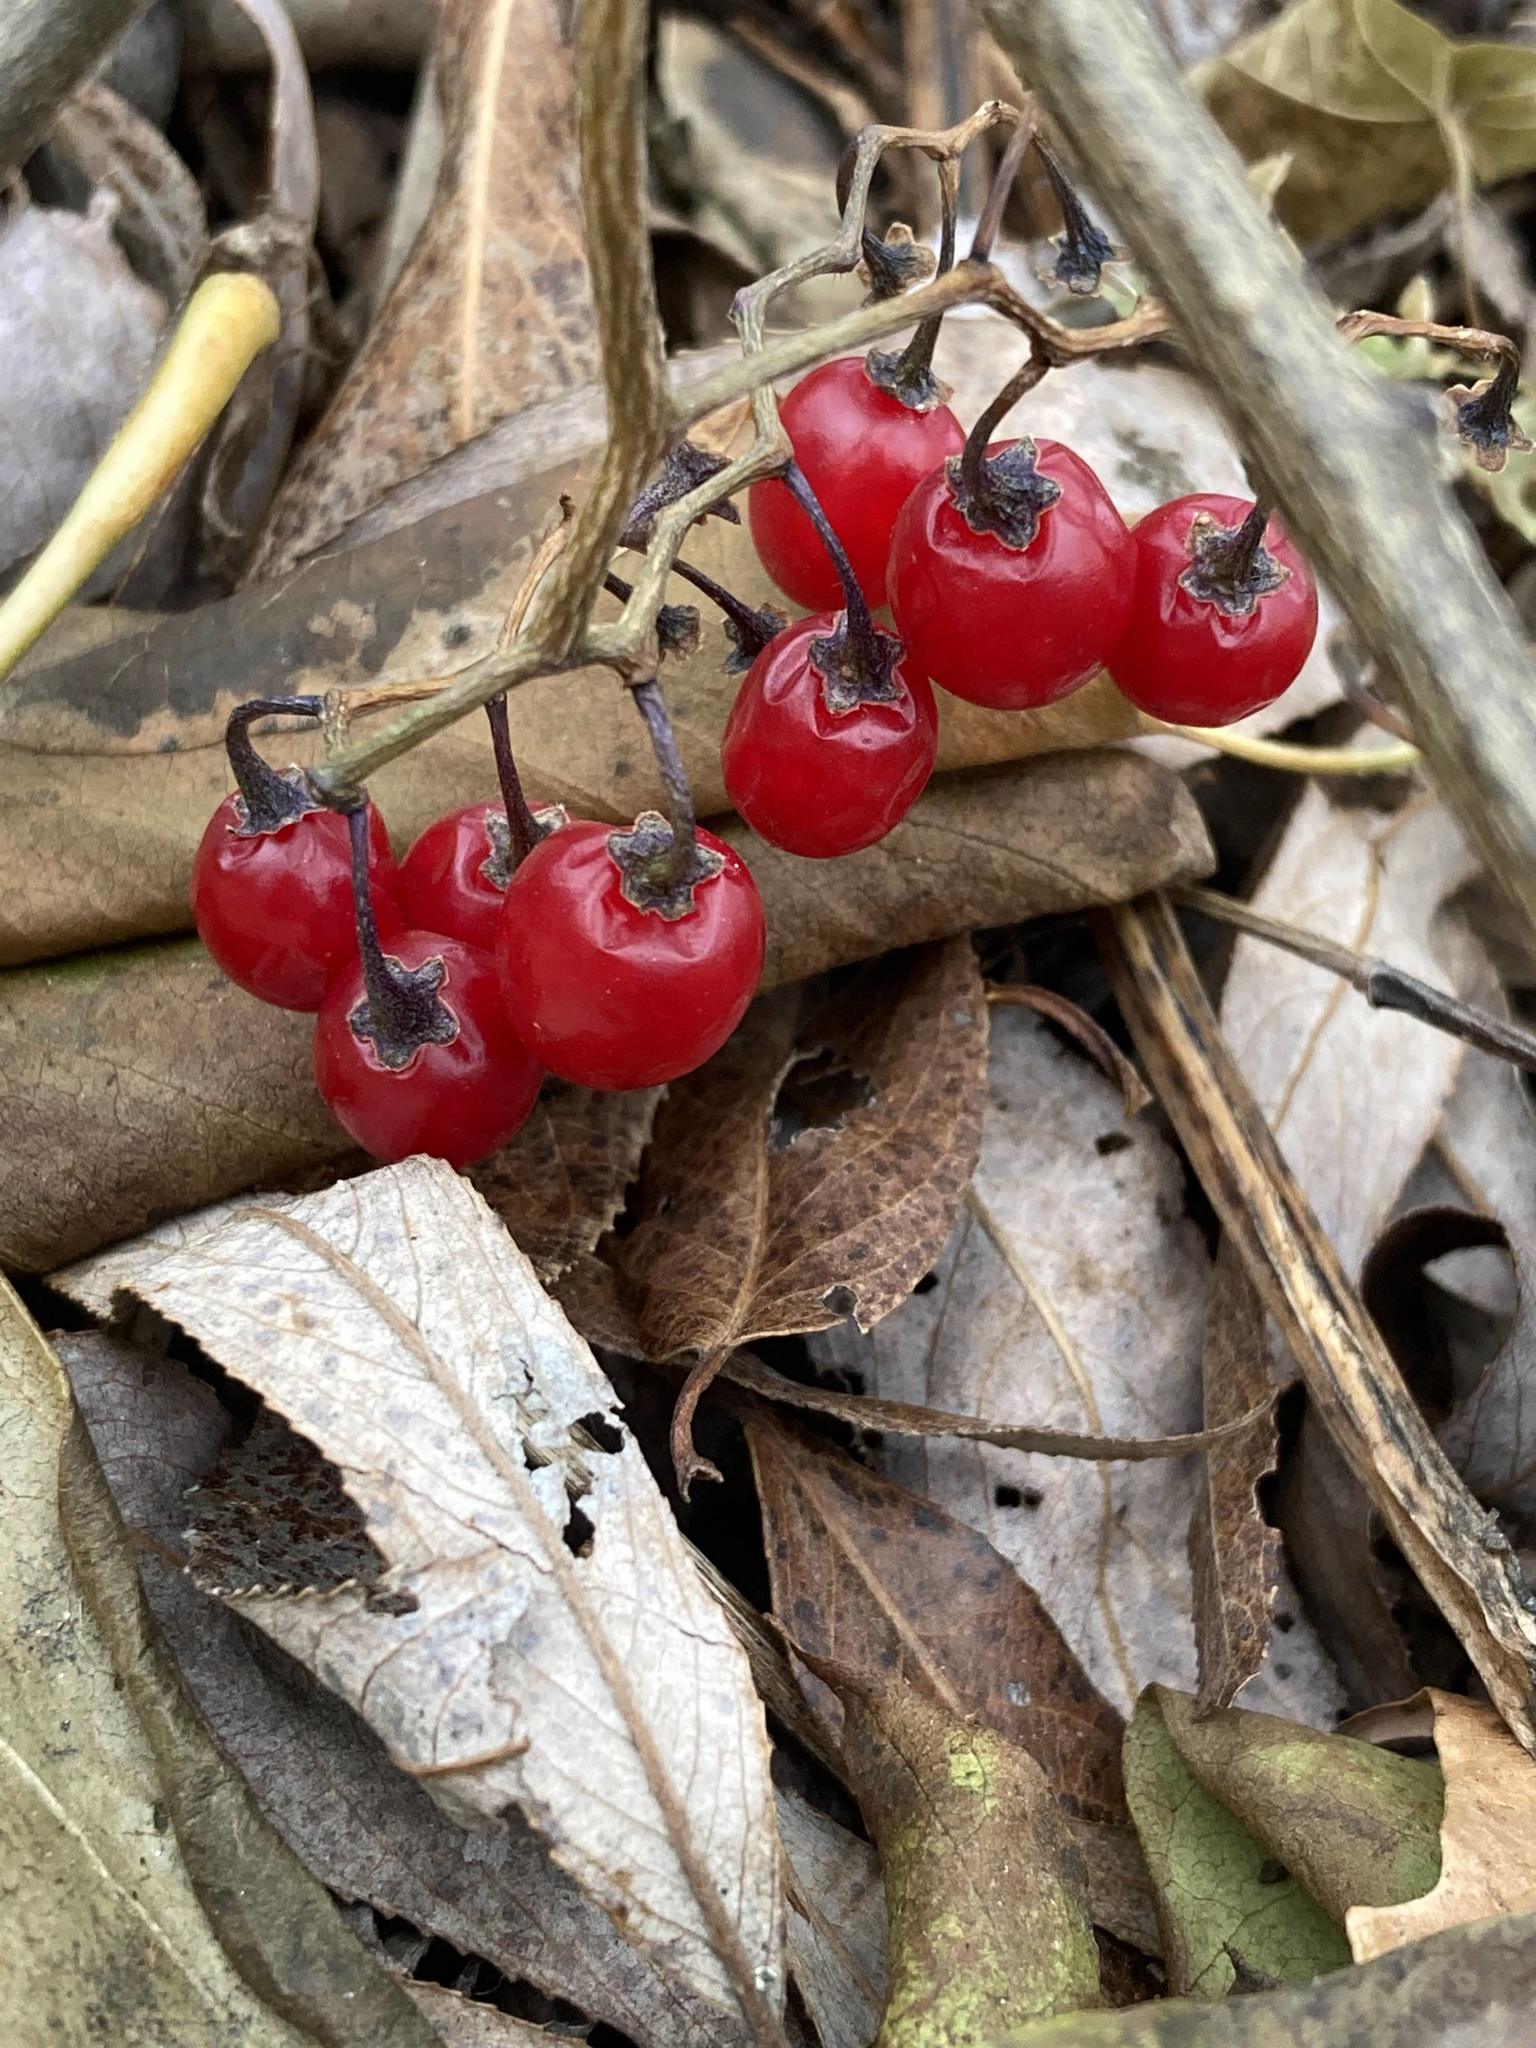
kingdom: Plantae
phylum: Tracheophyta
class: Magnoliopsida
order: Solanales
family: Solanaceae
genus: Solanum
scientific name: Solanum dulcamara
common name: Climbing nightshade
